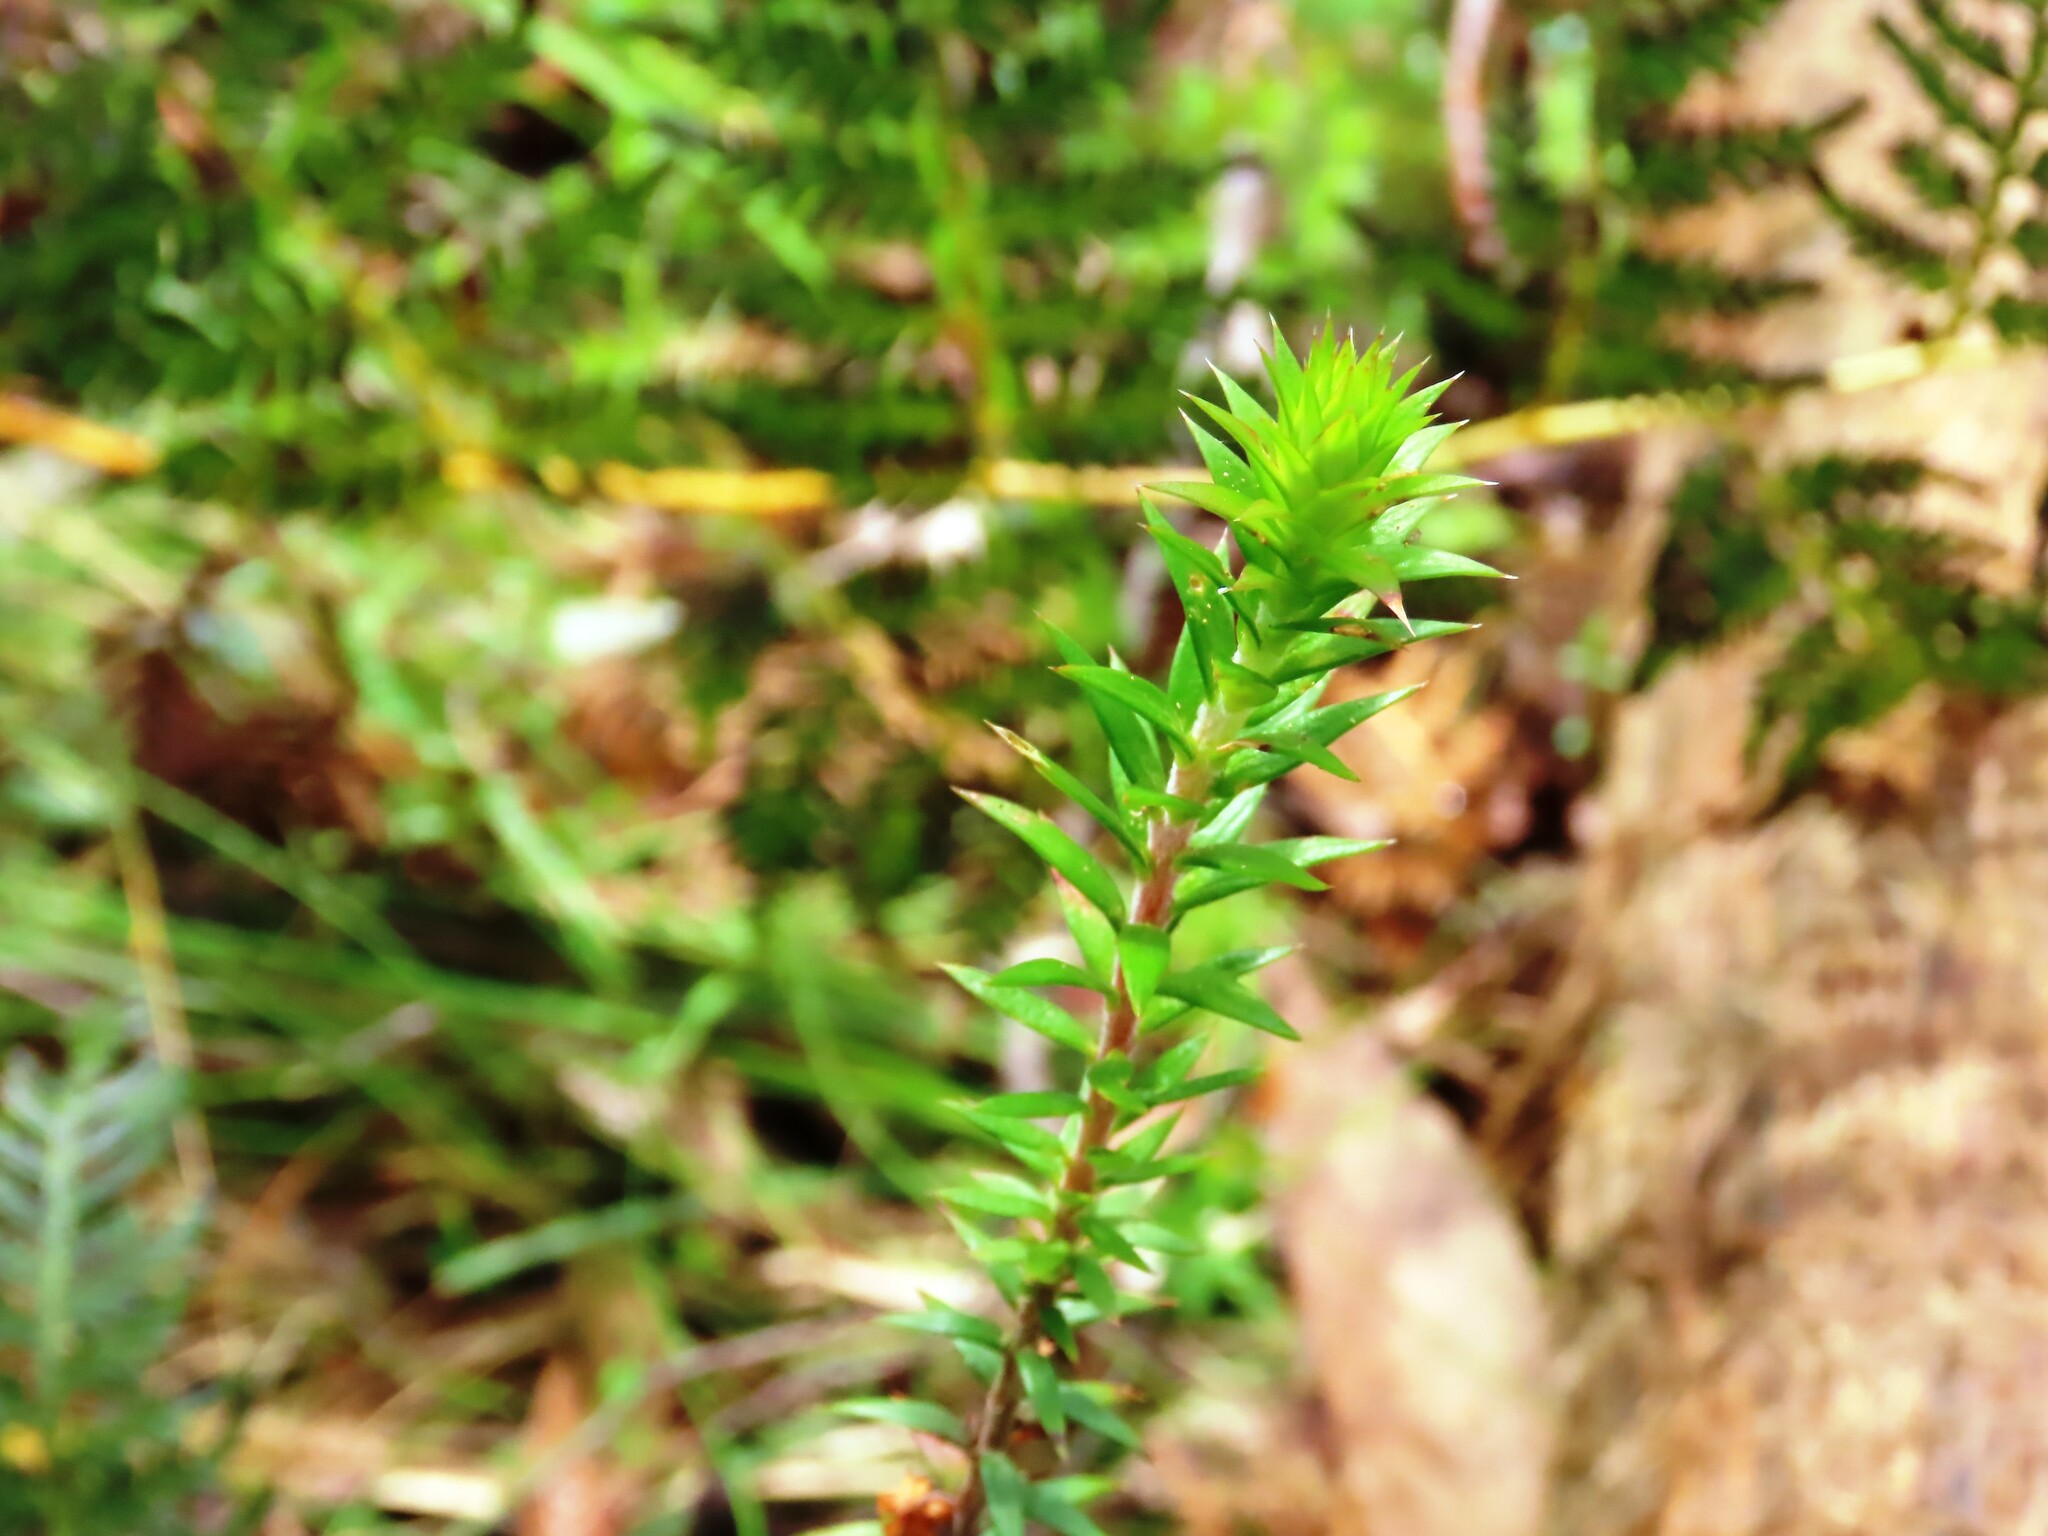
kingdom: Plantae
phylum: Tracheophyta
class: Magnoliopsida
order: Ericales
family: Ericaceae
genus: Epacris
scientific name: Epacris impressa
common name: Common-heath
